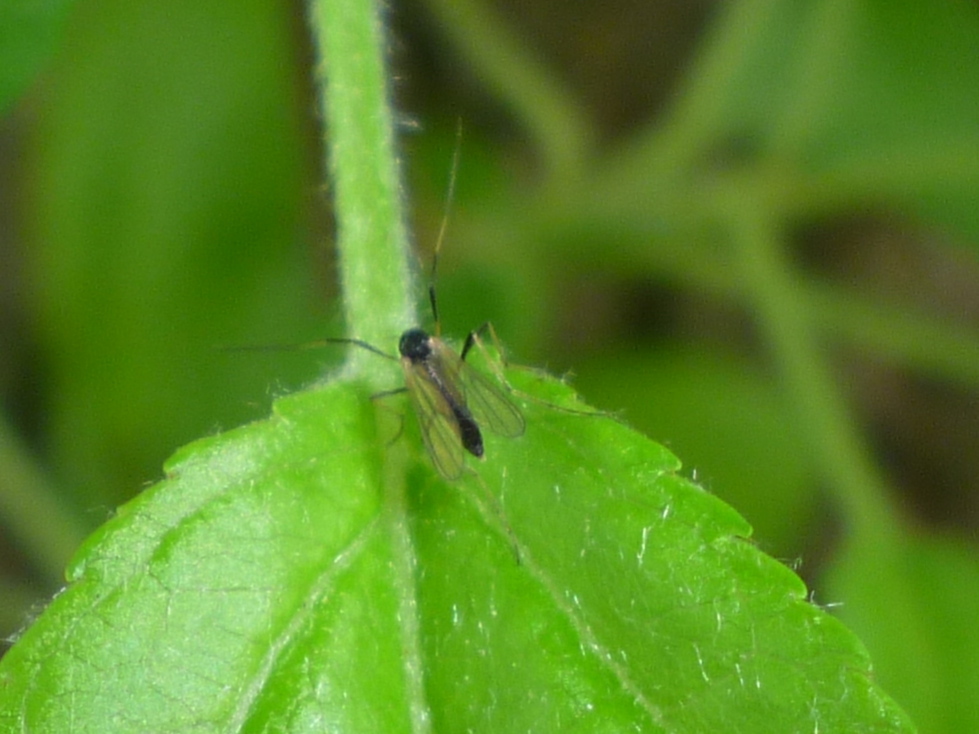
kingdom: Animalia
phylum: Arthropoda
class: Insecta
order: Diptera
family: Chironomidae
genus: Paratendipes
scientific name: Paratendipes albimanus
